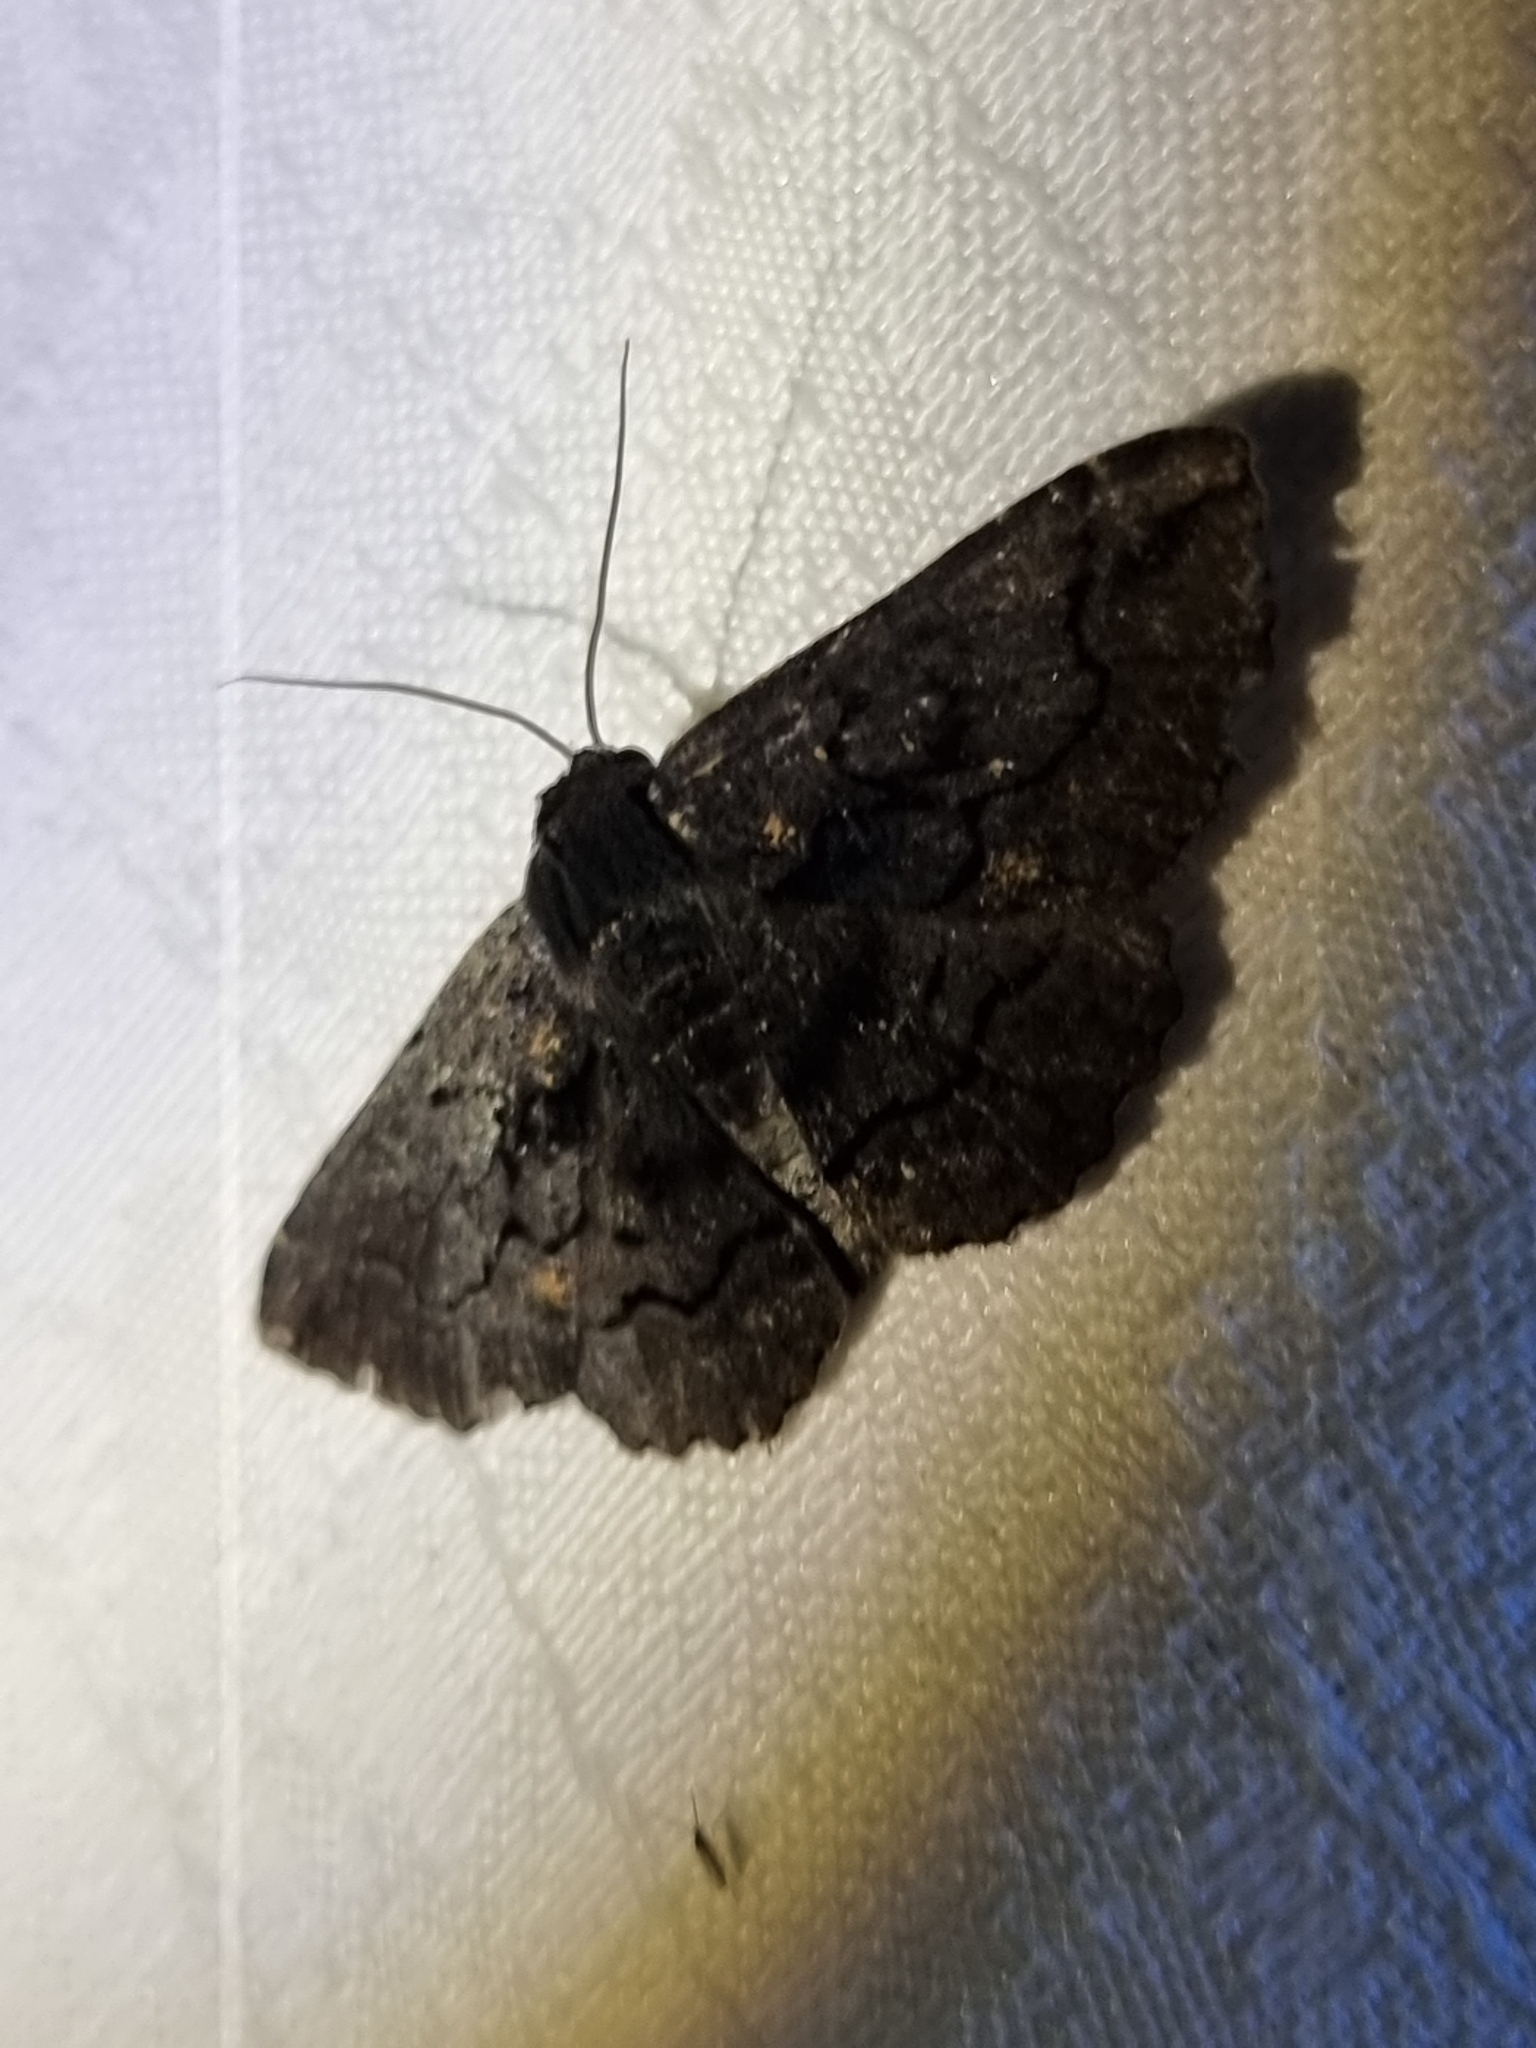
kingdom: Animalia
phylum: Arthropoda
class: Insecta
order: Lepidoptera
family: Geometridae
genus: Melanodes
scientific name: Melanodes anthracitaria
